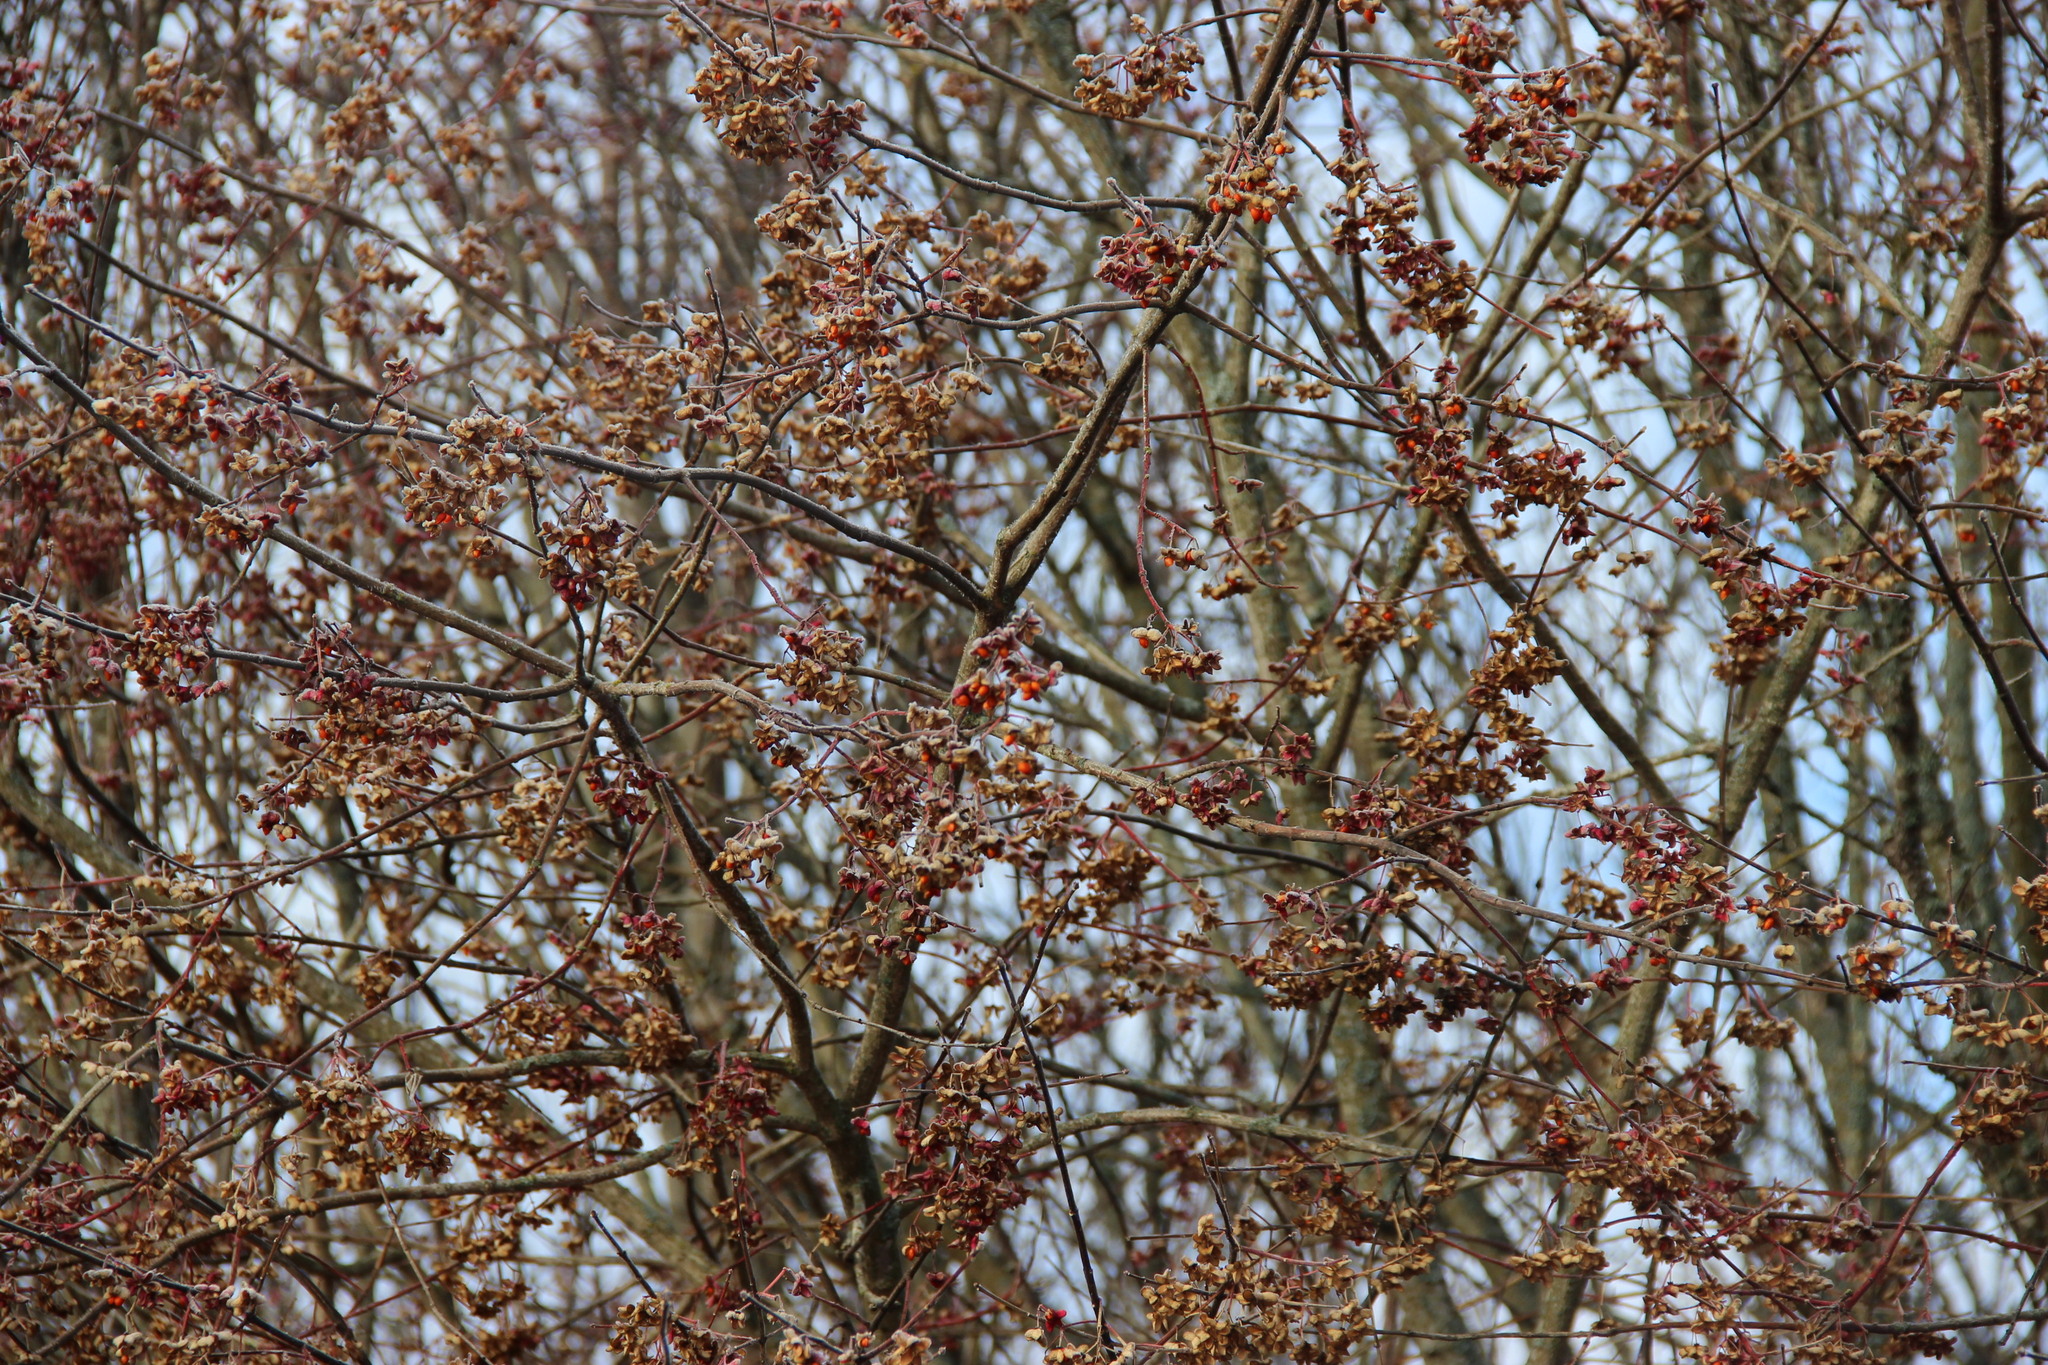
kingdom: Plantae
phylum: Tracheophyta
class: Magnoliopsida
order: Celastrales
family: Celastraceae
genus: Euonymus
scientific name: Euonymus europaeus
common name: Spindle
